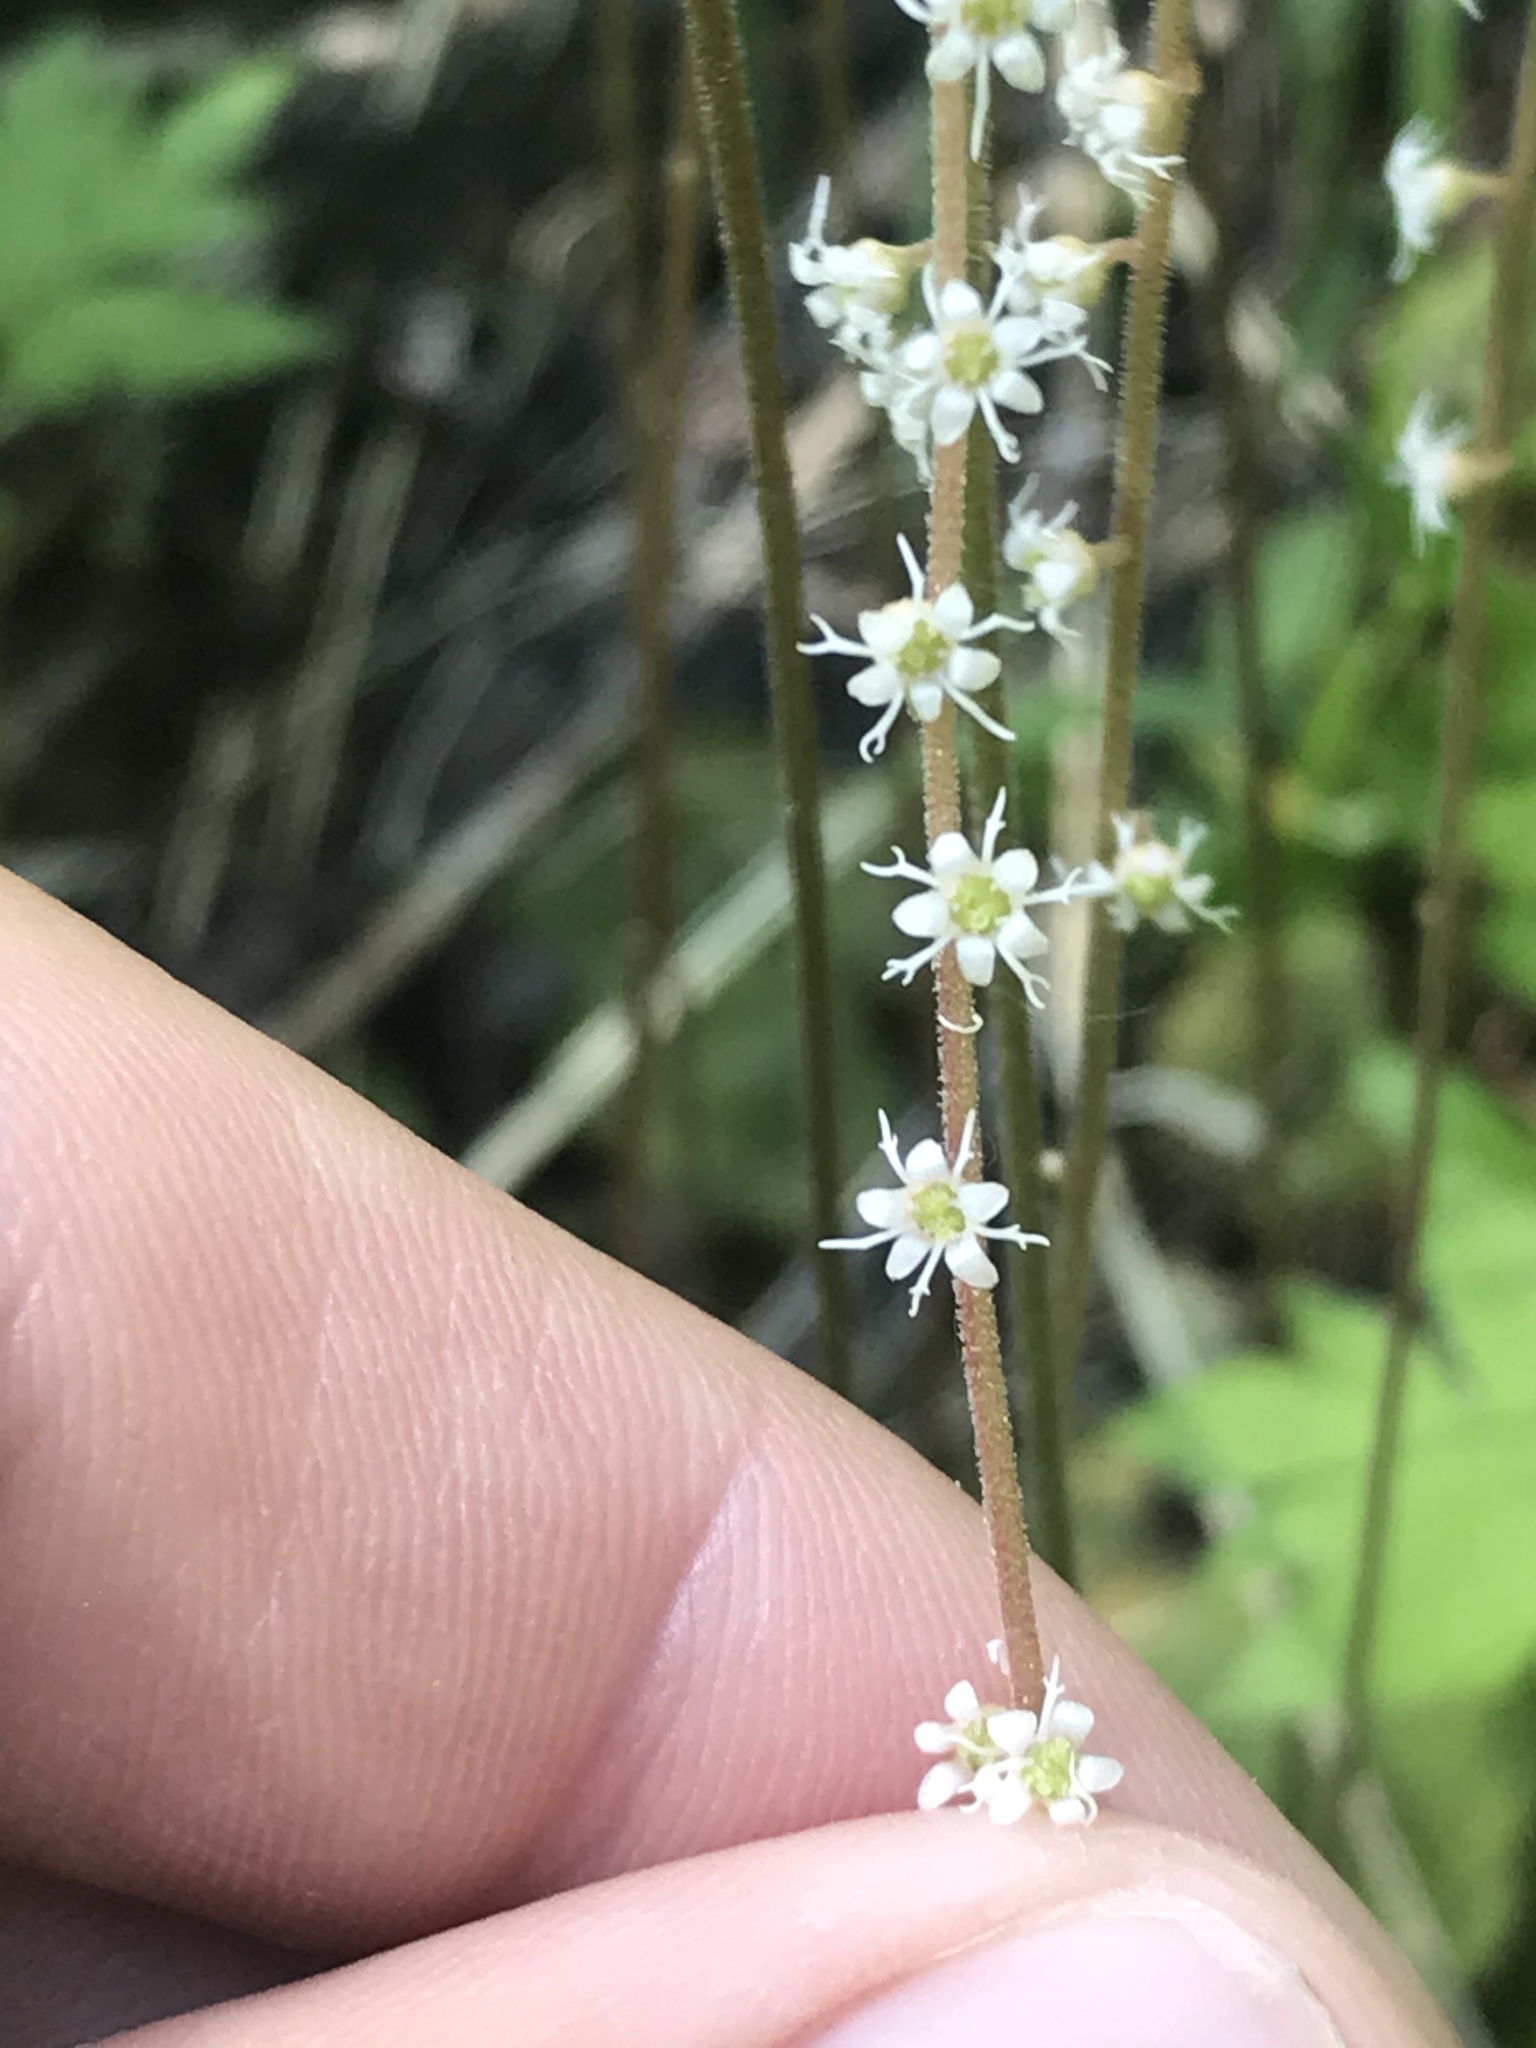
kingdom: Plantae
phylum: Tracheophyta
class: Magnoliopsida
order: Saxifragales
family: Saxifragaceae
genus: Ozomelis
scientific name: Ozomelis stauropetala
